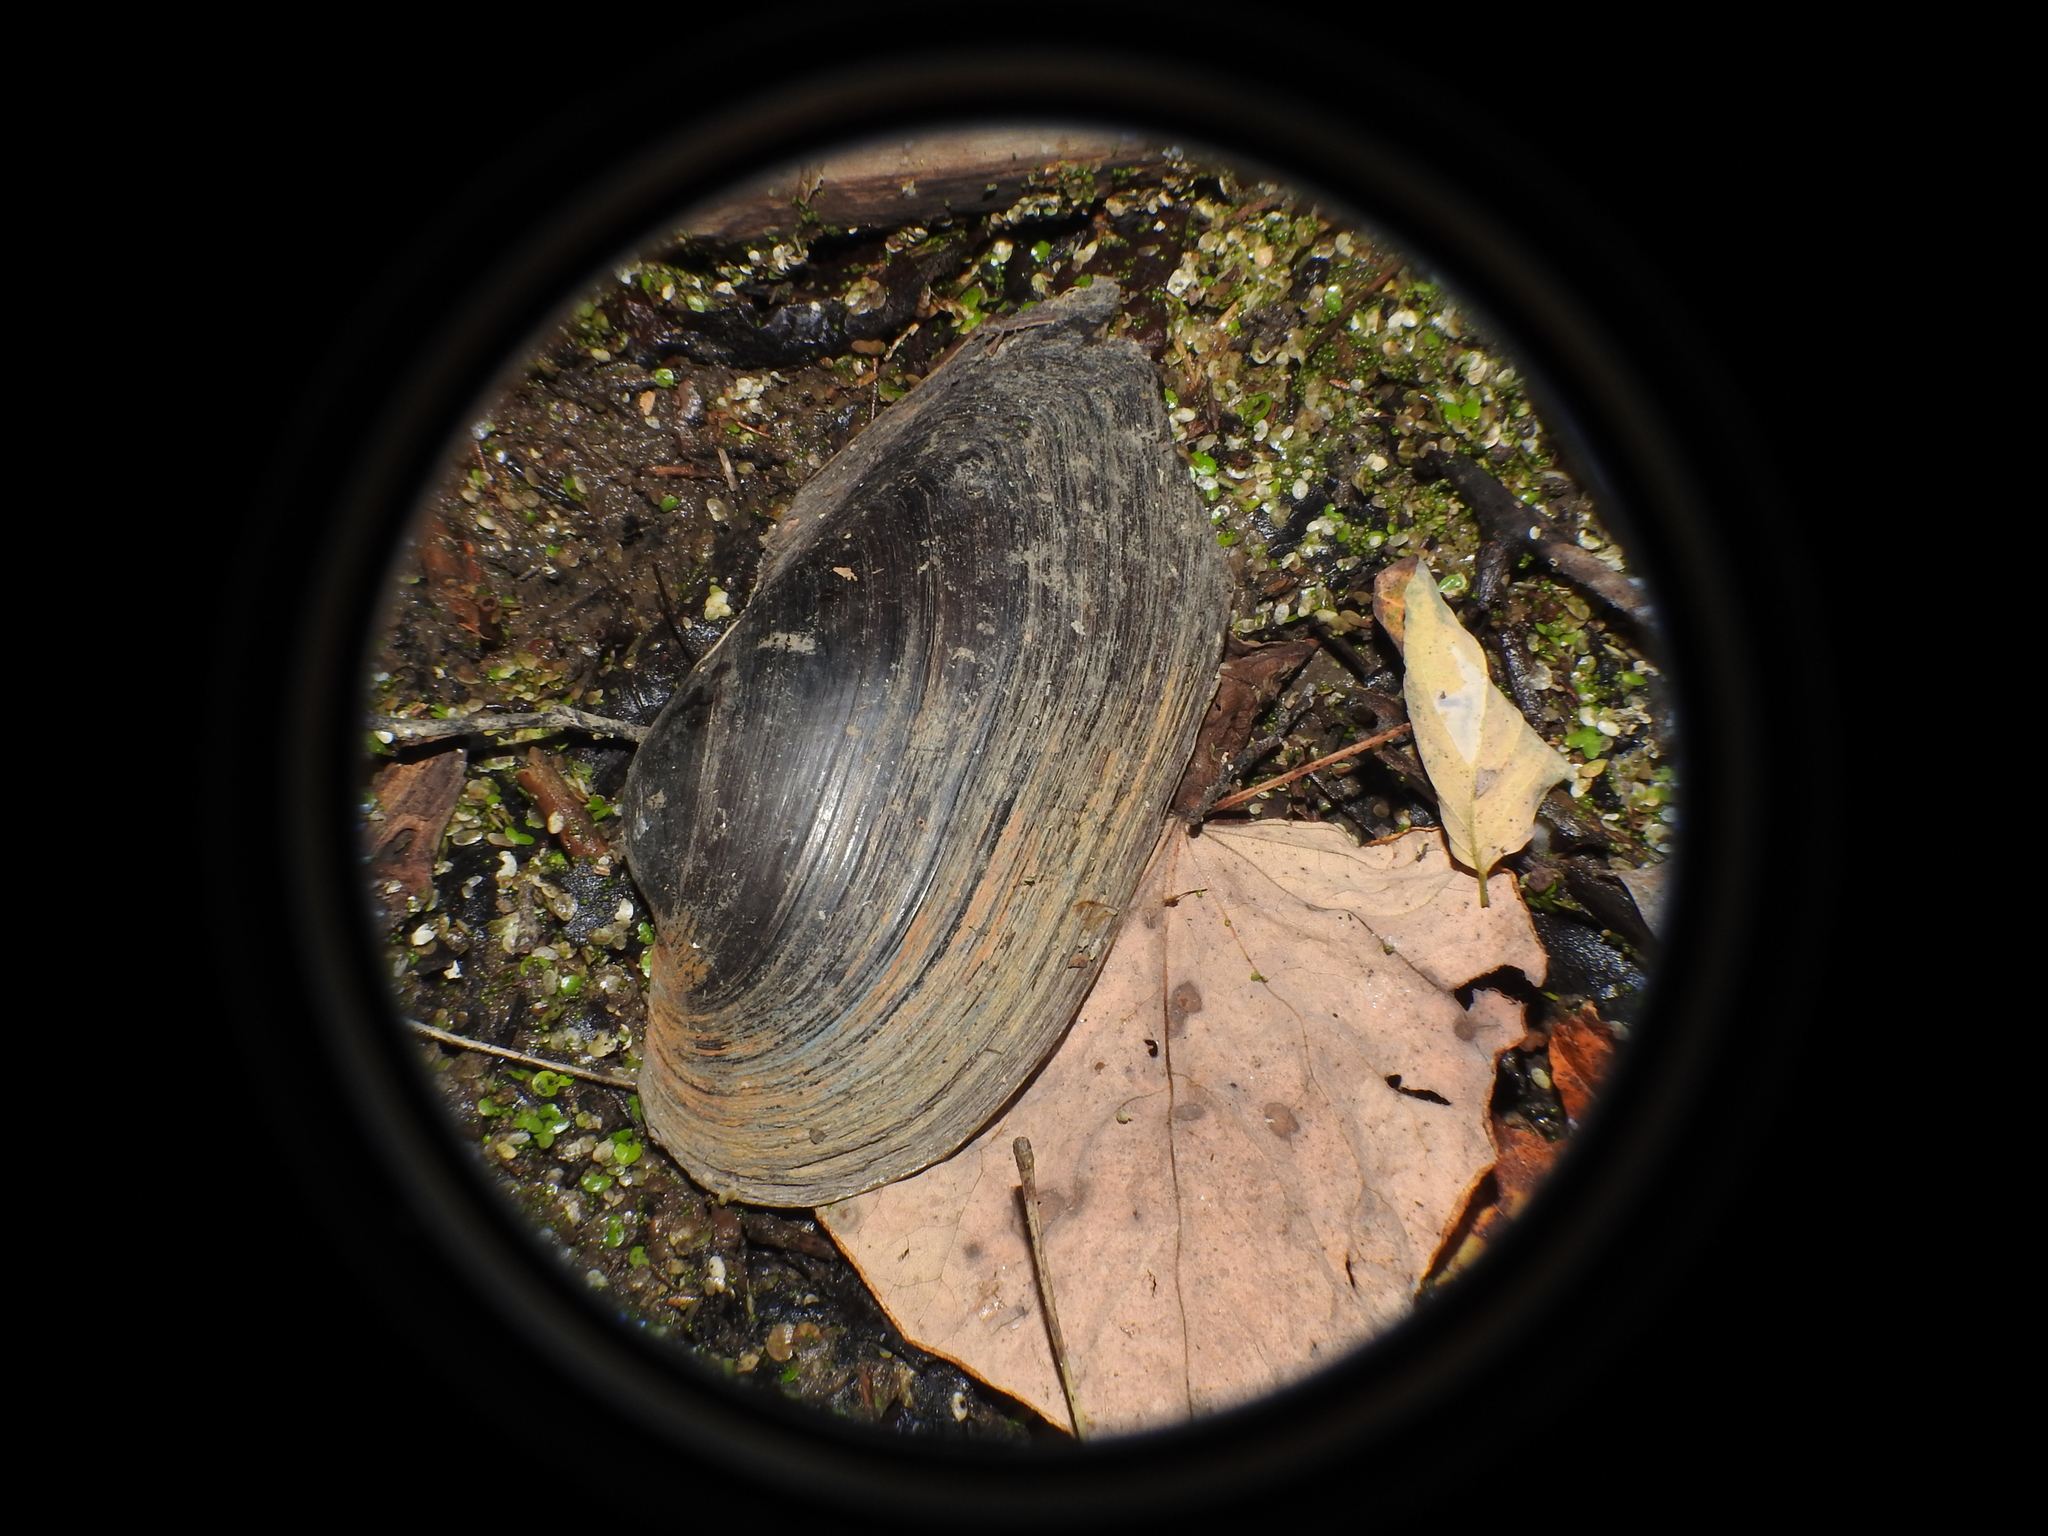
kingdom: Animalia
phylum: Mollusca
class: Bivalvia
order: Unionida
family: Unionidae
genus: Pyganodon
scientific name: Pyganodon grandis
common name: Giant floater
